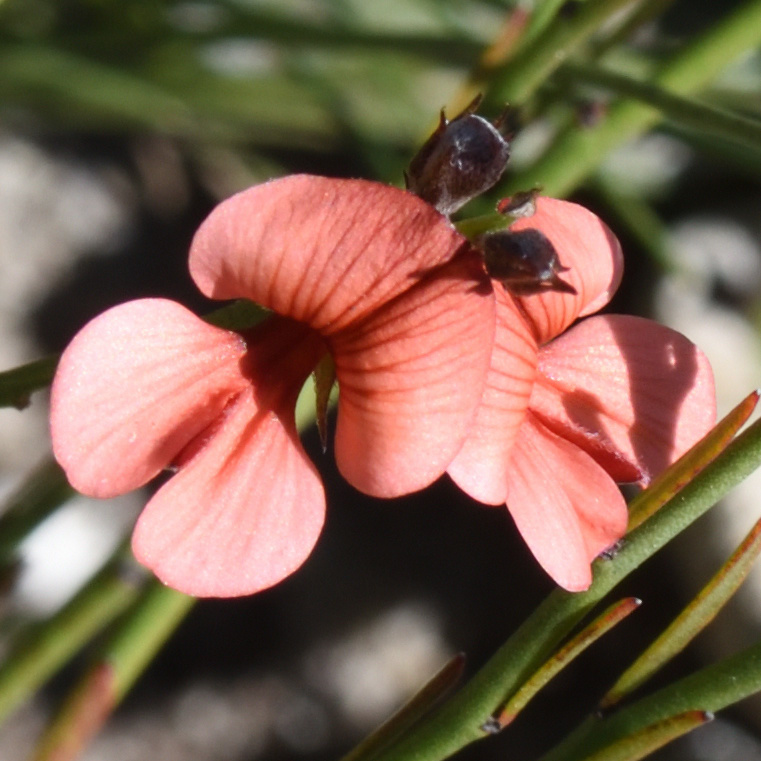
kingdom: Plantae
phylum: Tracheophyta
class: Magnoliopsida
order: Fabales
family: Fabaceae
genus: Indigofera
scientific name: Indigofera disticha
